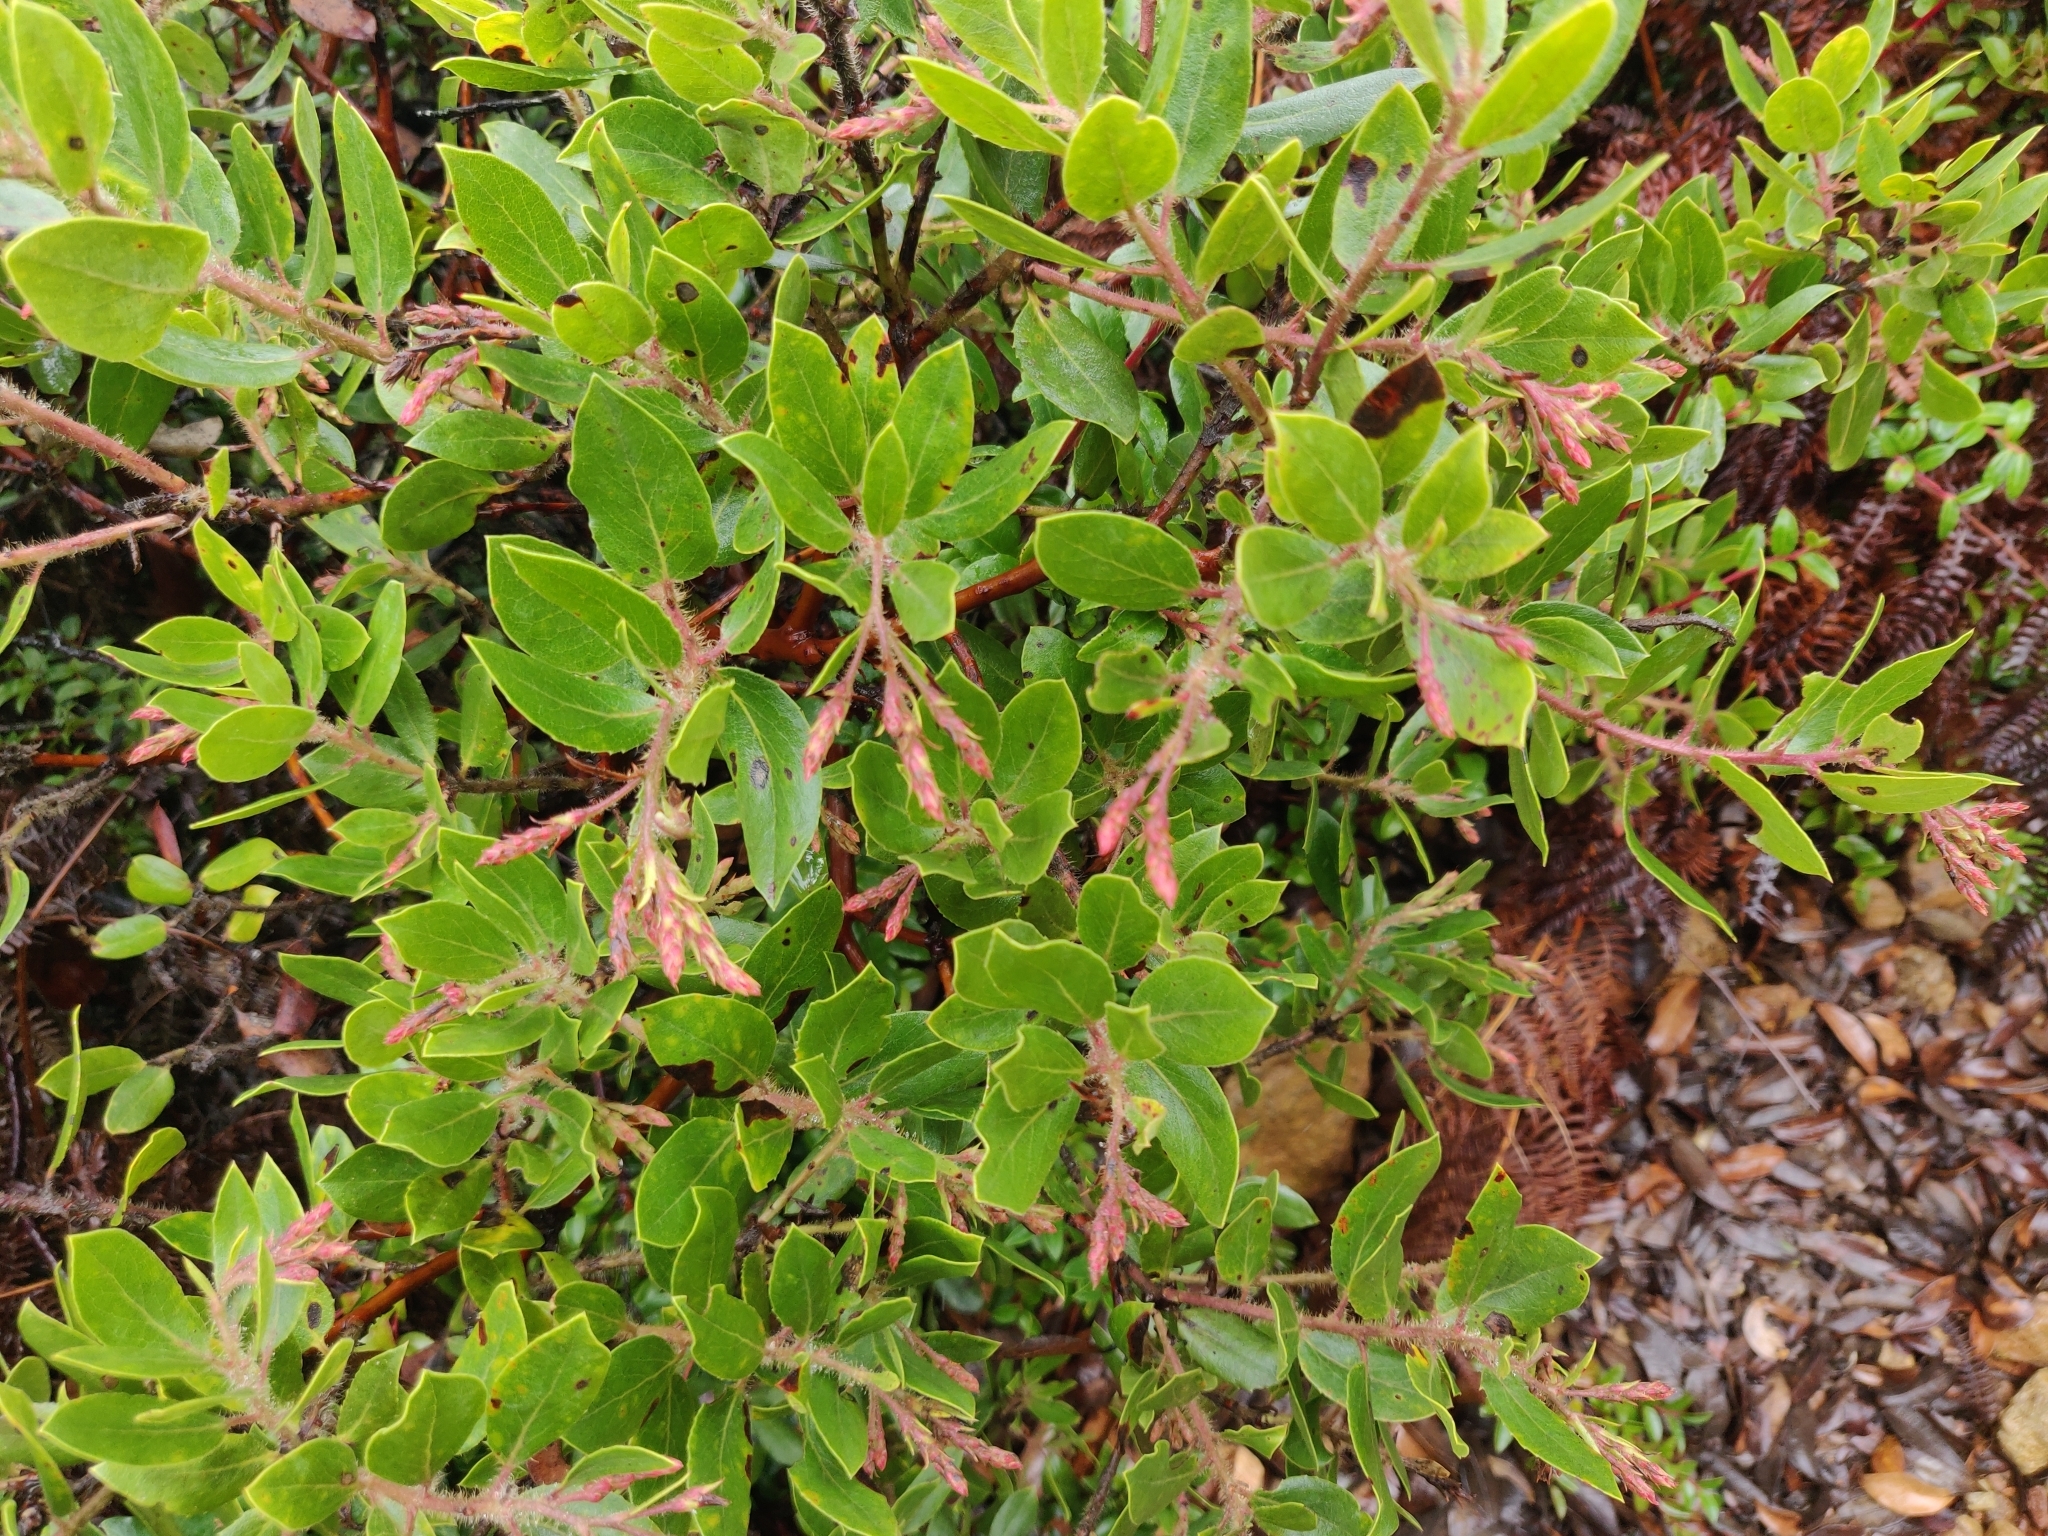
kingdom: Plantae
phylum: Tracheophyta
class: Magnoliopsida
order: Ericales
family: Ericaceae
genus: Arctostaphylos
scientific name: Arctostaphylos crustacea
